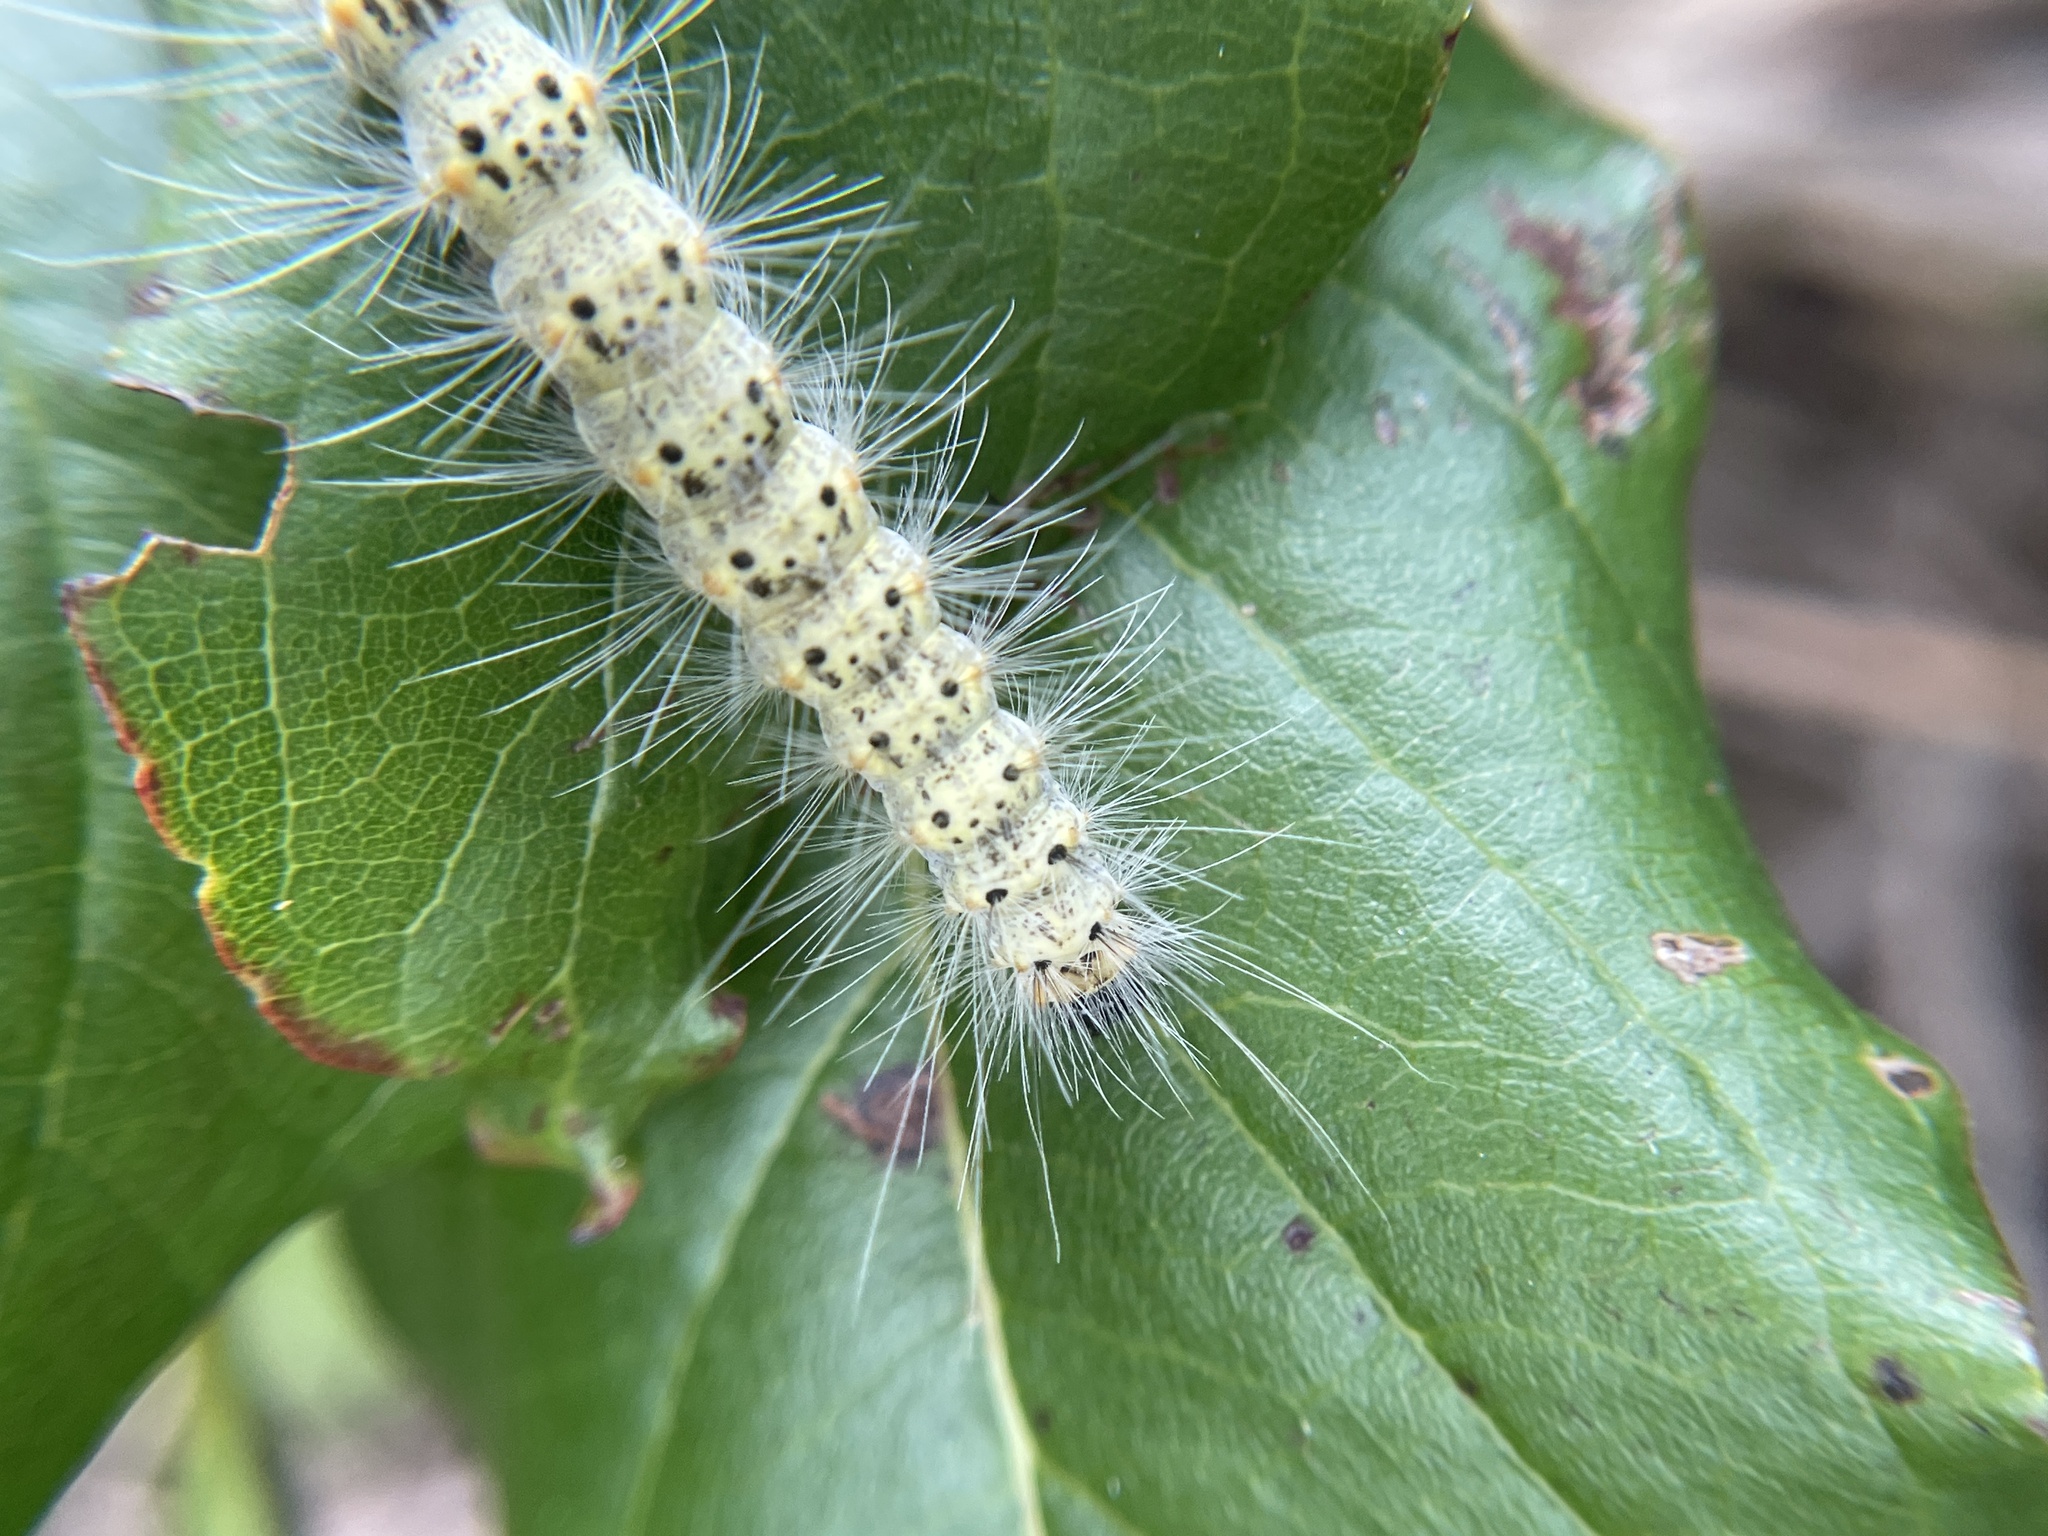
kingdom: Animalia
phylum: Arthropoda
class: Insecta
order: Lepidoptera
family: Erebidae
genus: Hyphantria
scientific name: Hyphantria cunea
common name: American white moth
